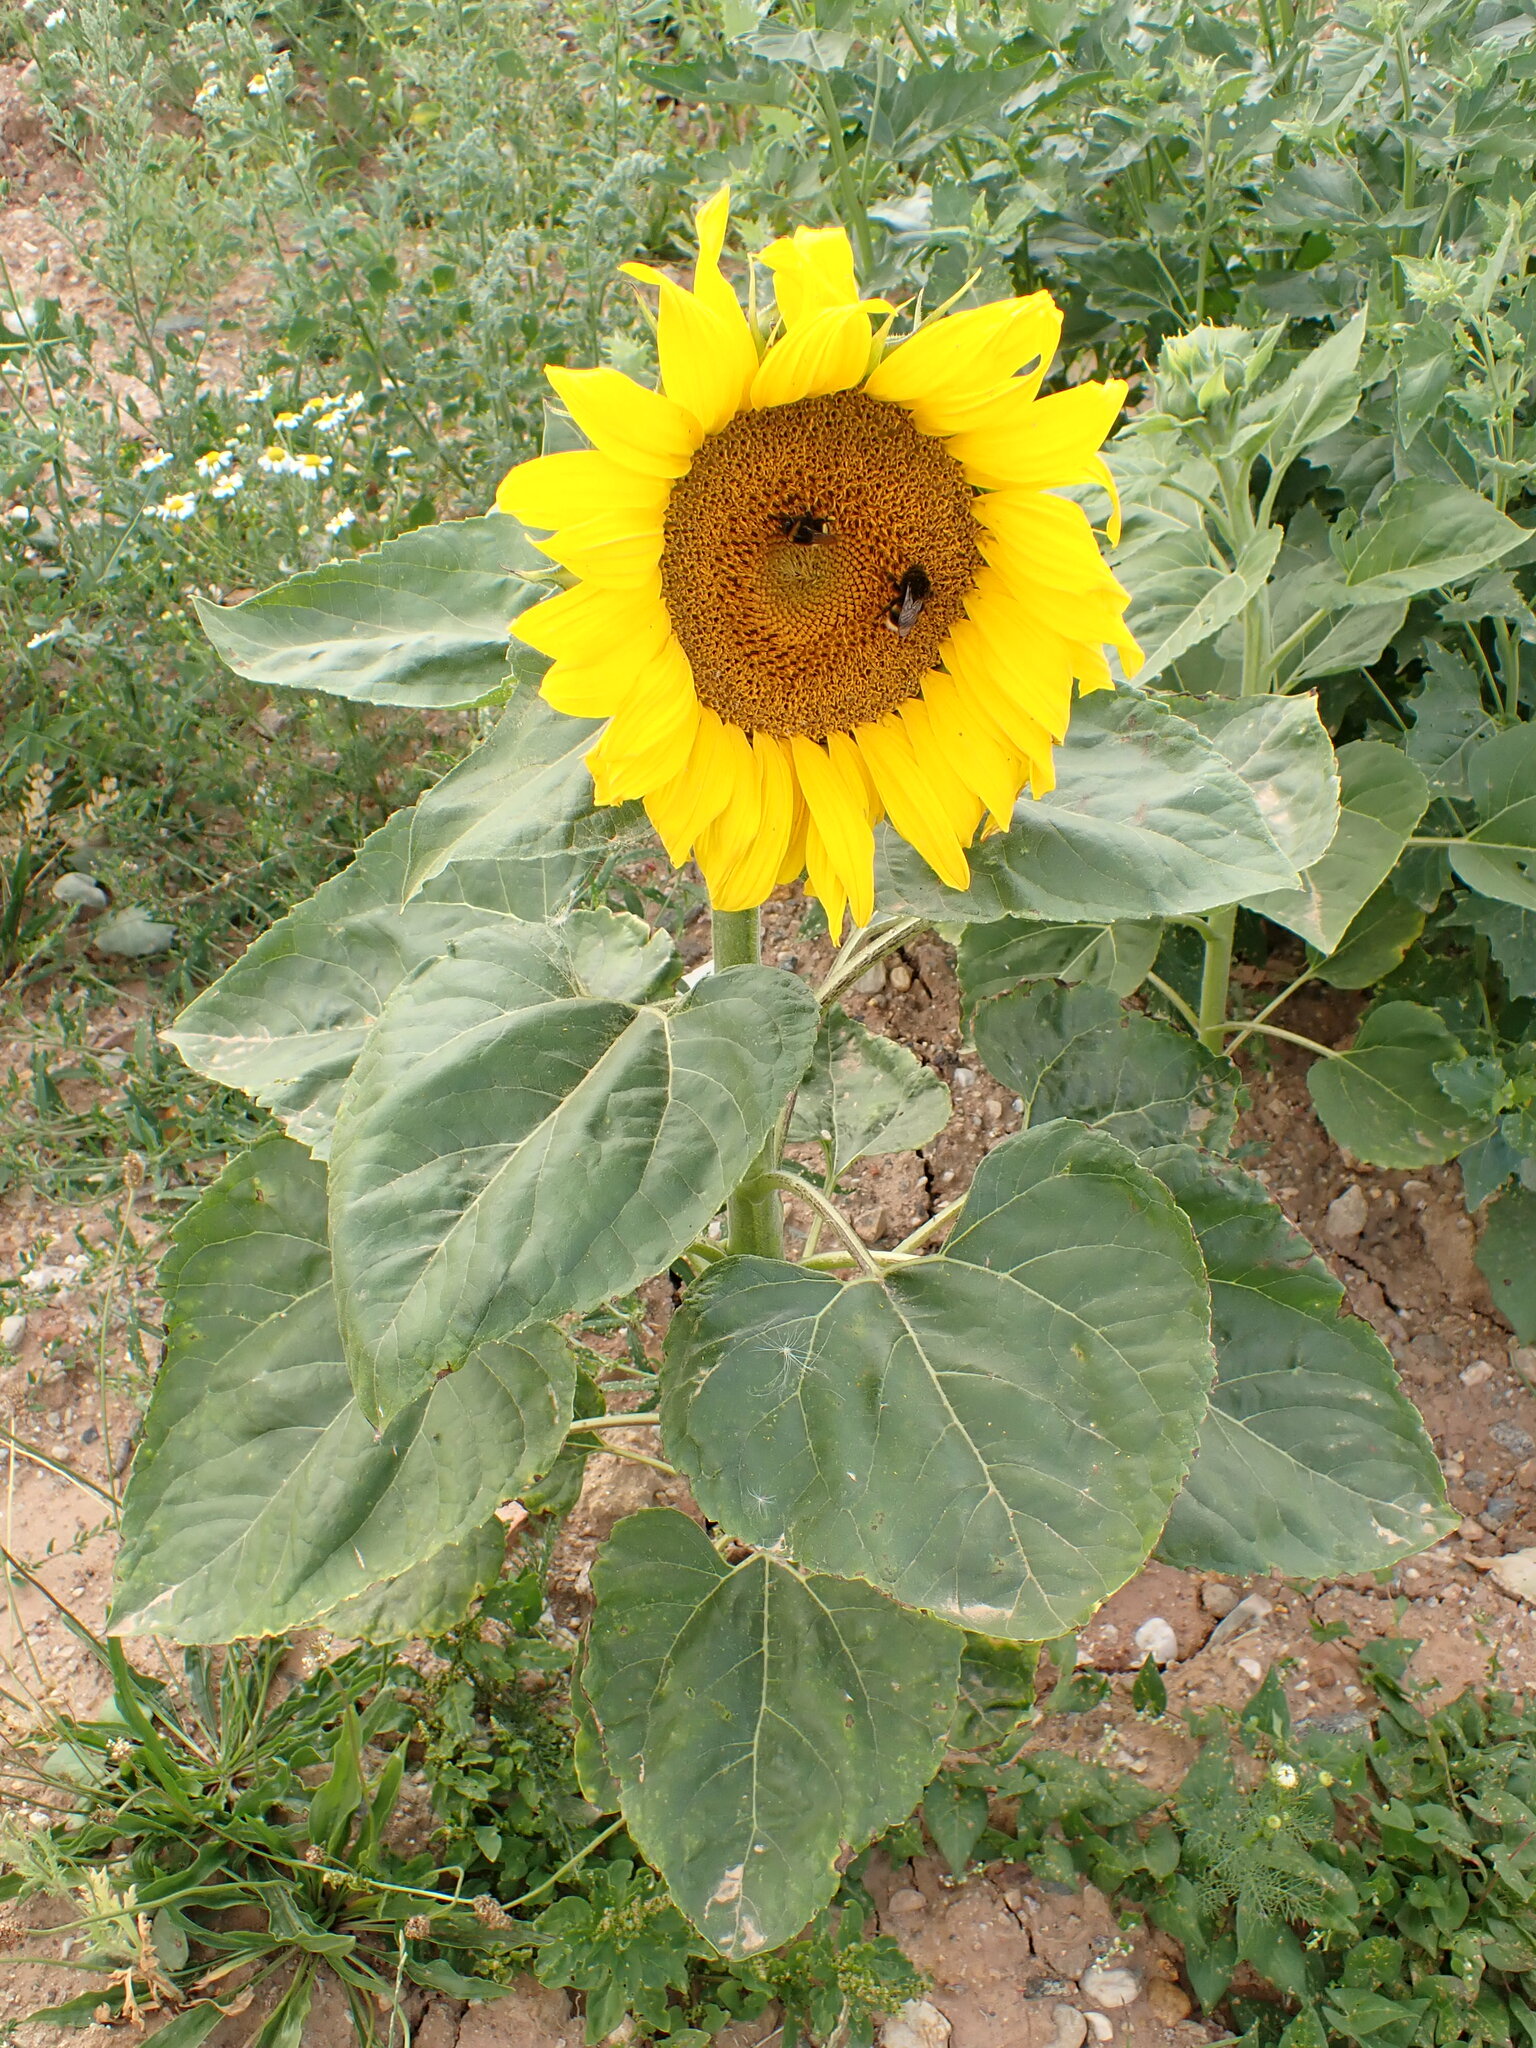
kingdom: Plantae
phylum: Tracheophyta
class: Magnoliopsida
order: Asterales
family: Asteraceae
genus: Helianthus
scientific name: Helianthus annuus
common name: Sunflower
